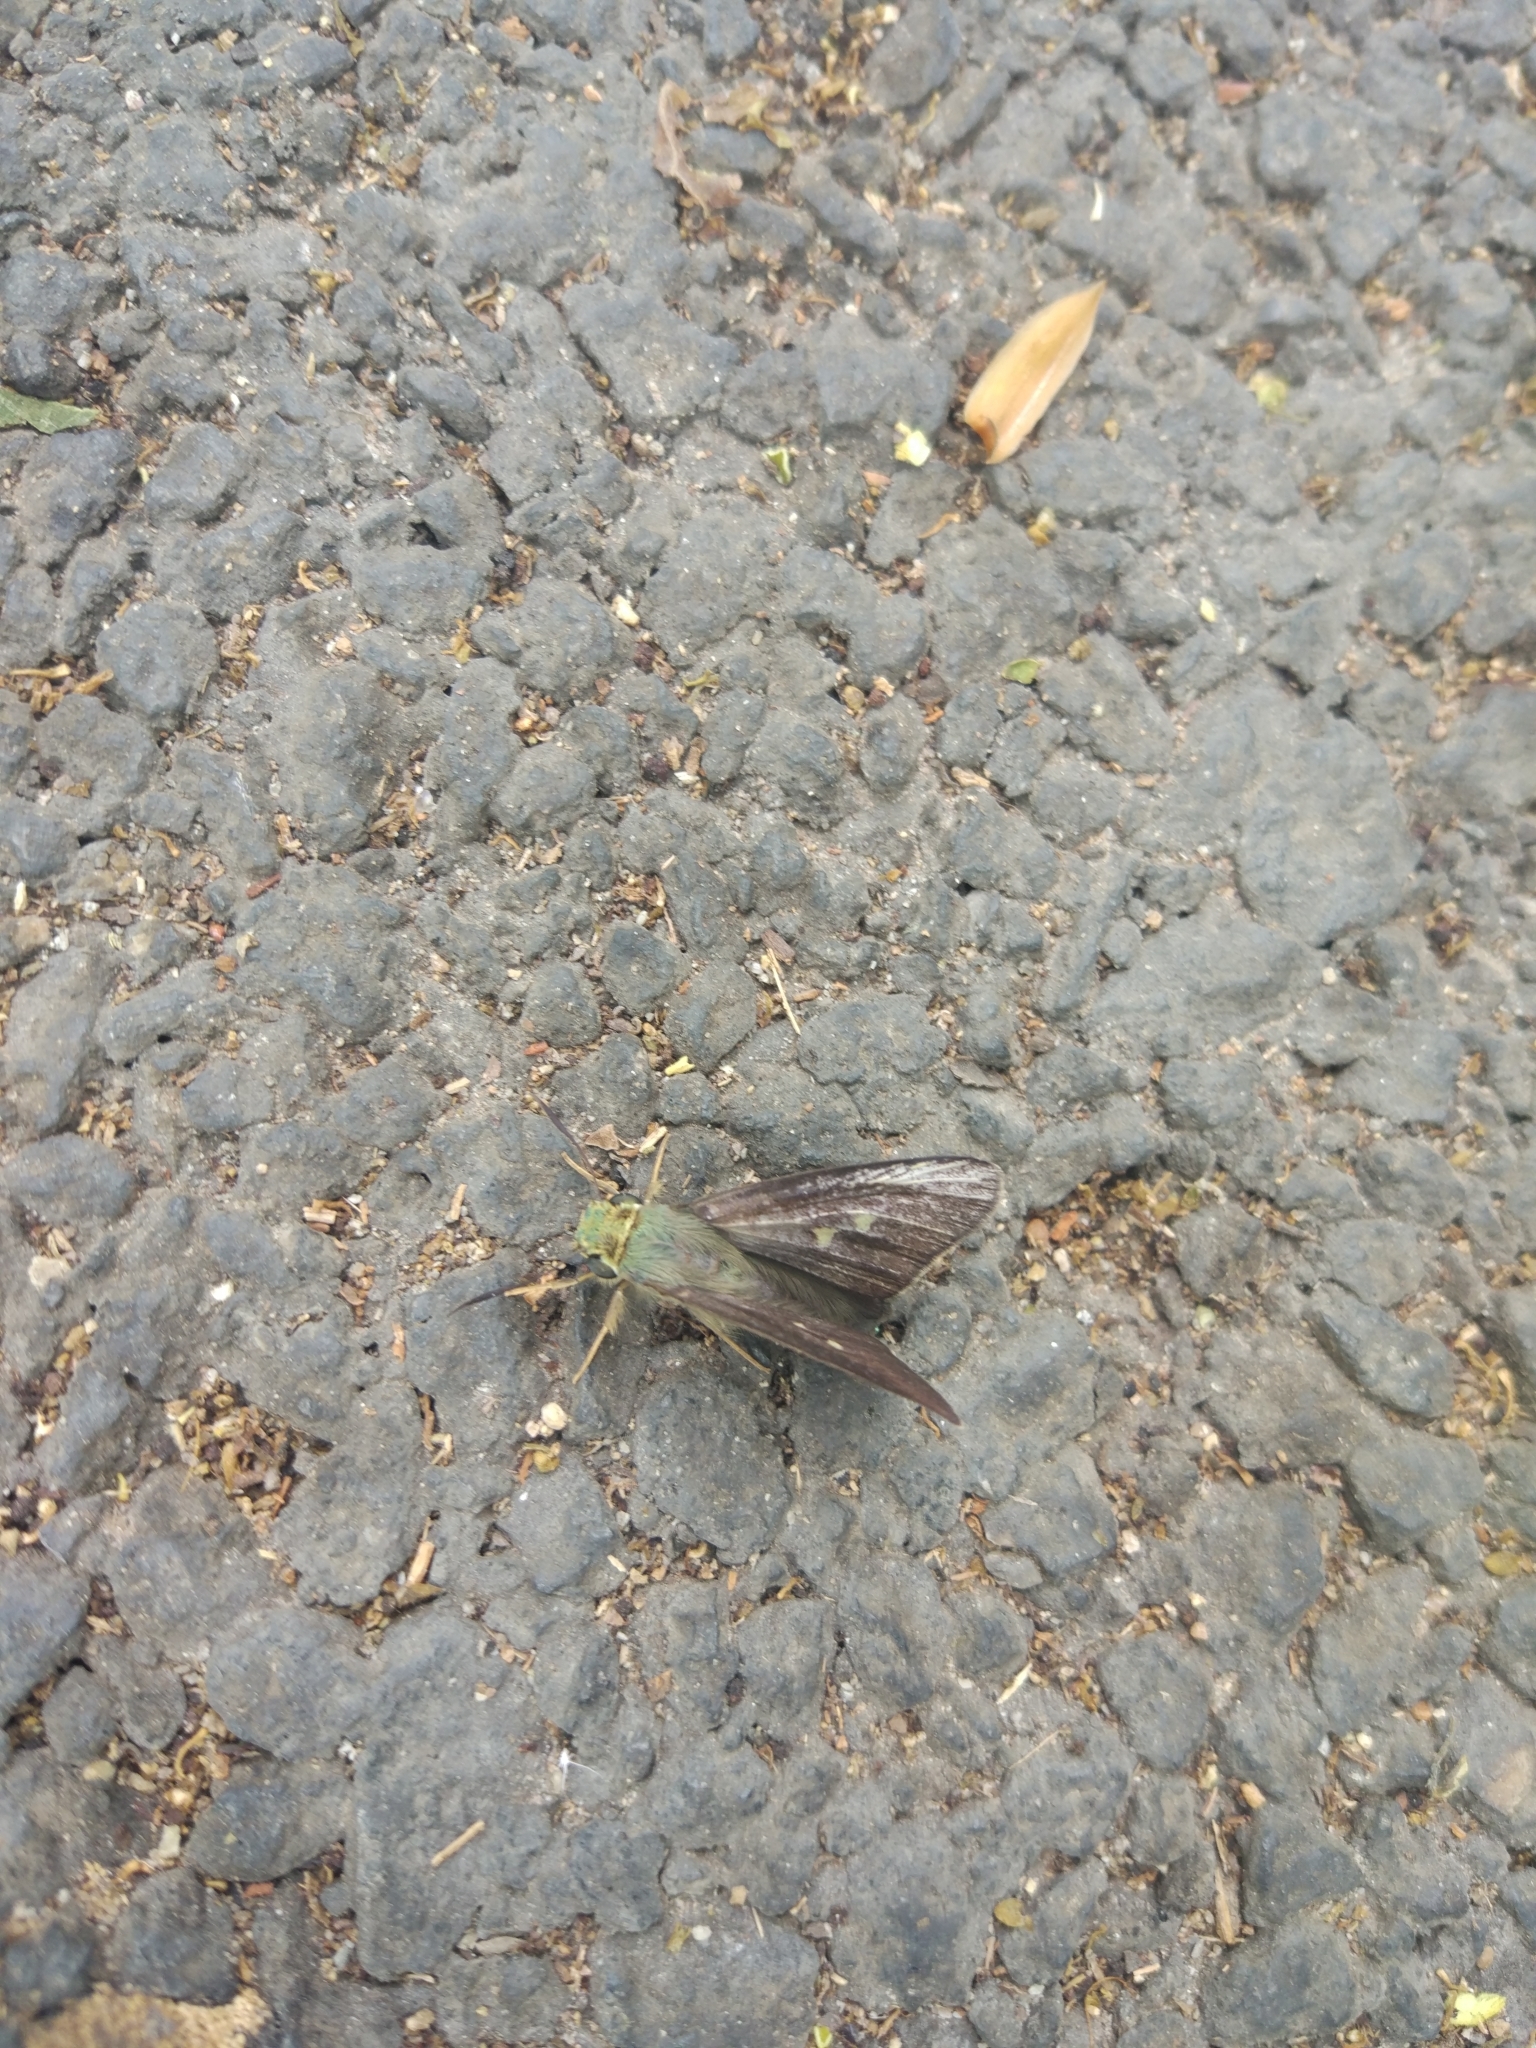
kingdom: Animalia
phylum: Arthropoda
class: Insecta
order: Lepidoptera
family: Hesperiidae
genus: Hasora
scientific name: Hasora chromus
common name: Common banded awl
